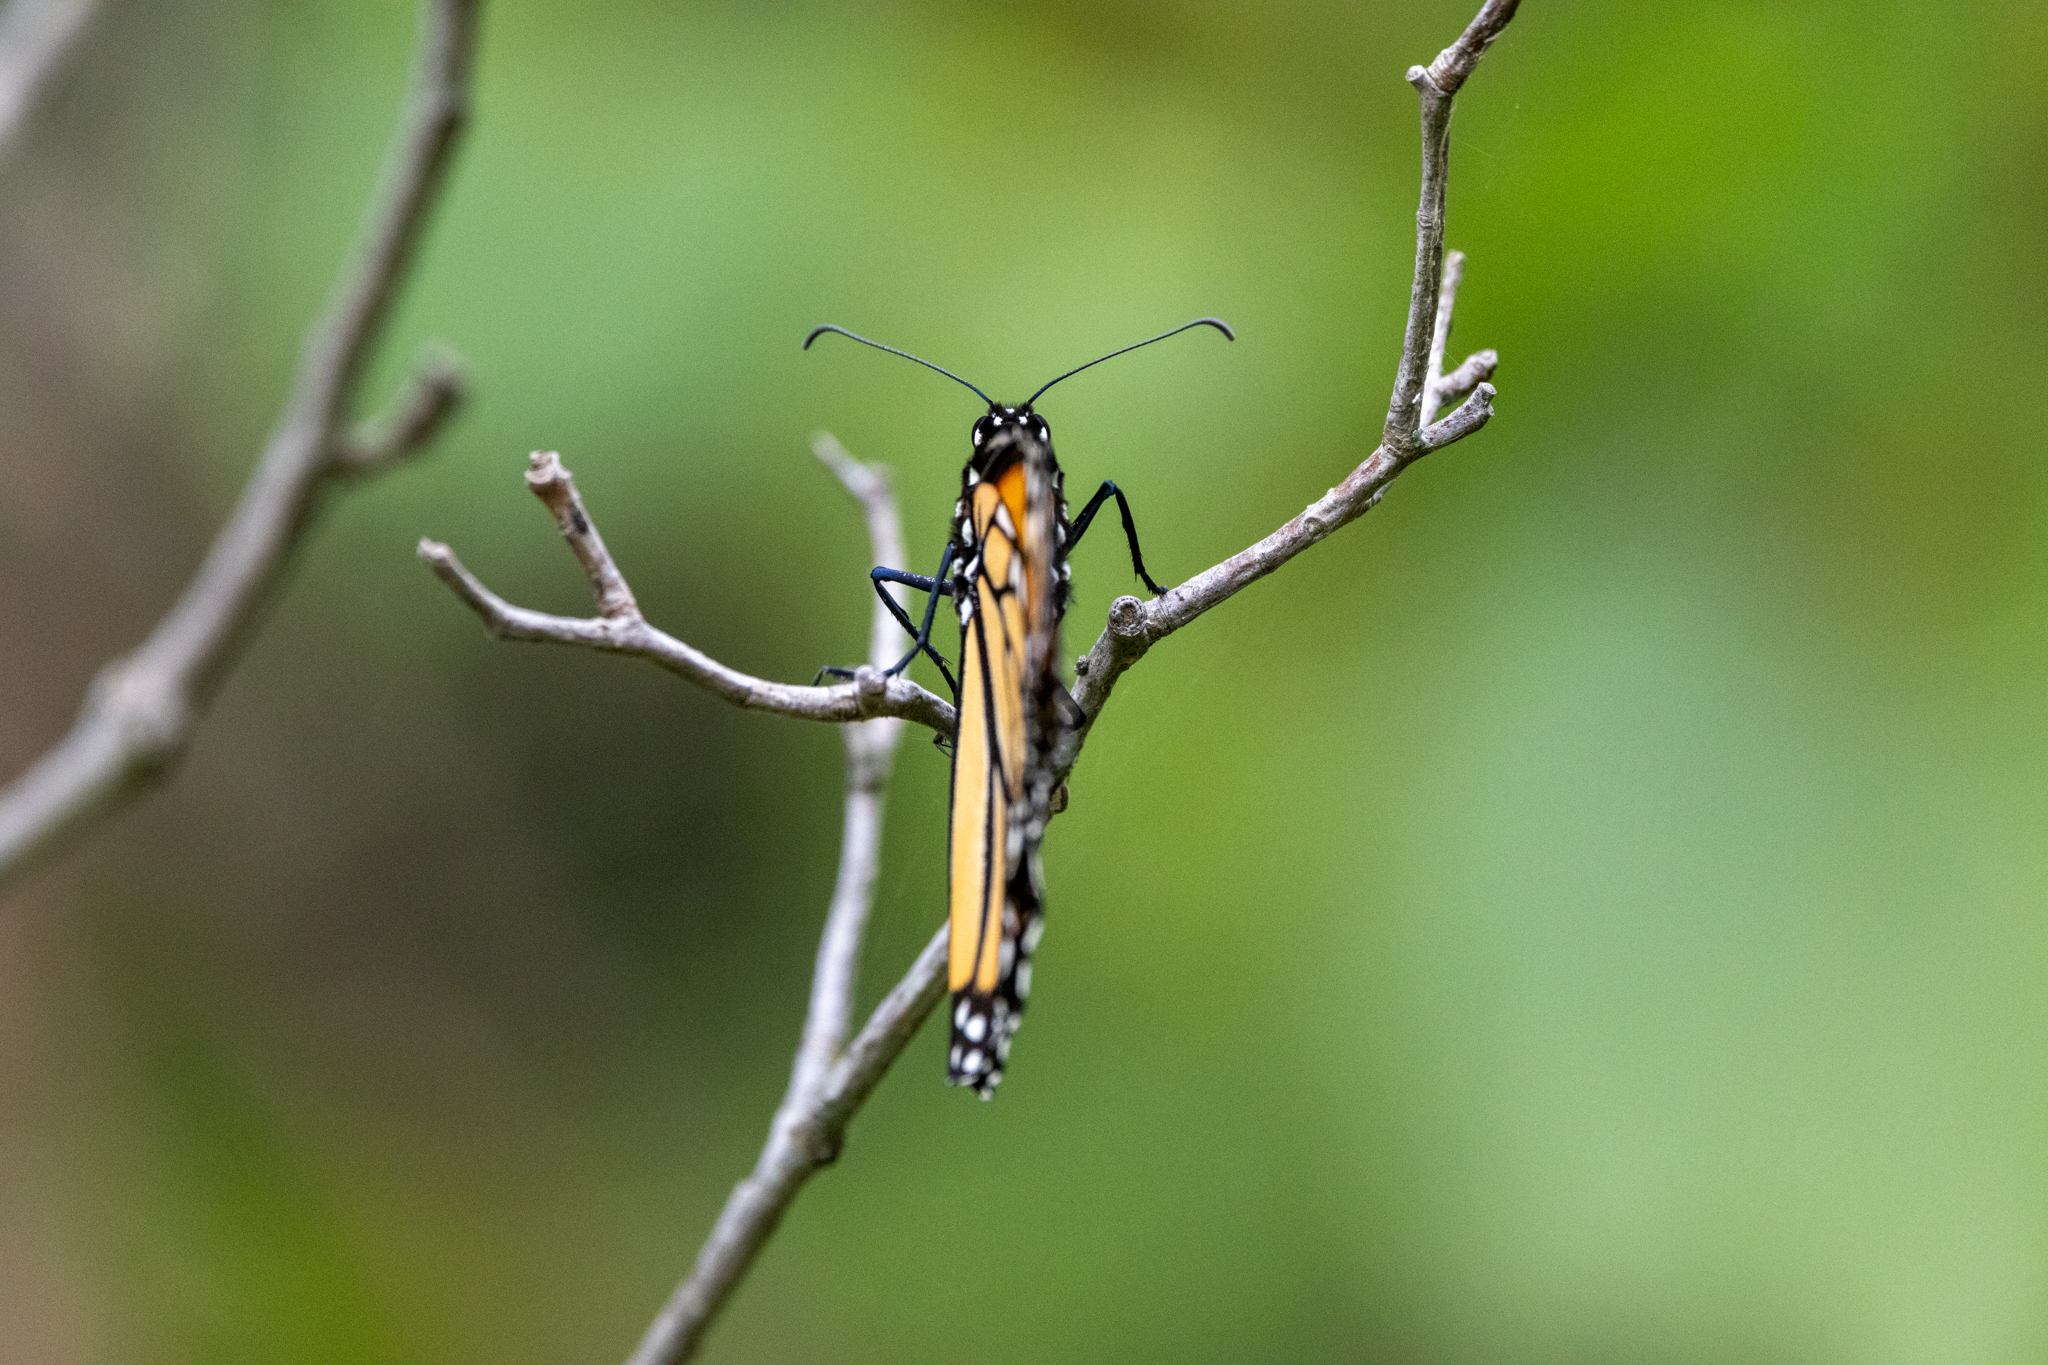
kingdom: Animalia
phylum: Arthropoda
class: Insecta
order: Lepidoptera
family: Nymphalidae
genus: Danaus
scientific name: Danaus plexippus
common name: Monarch
